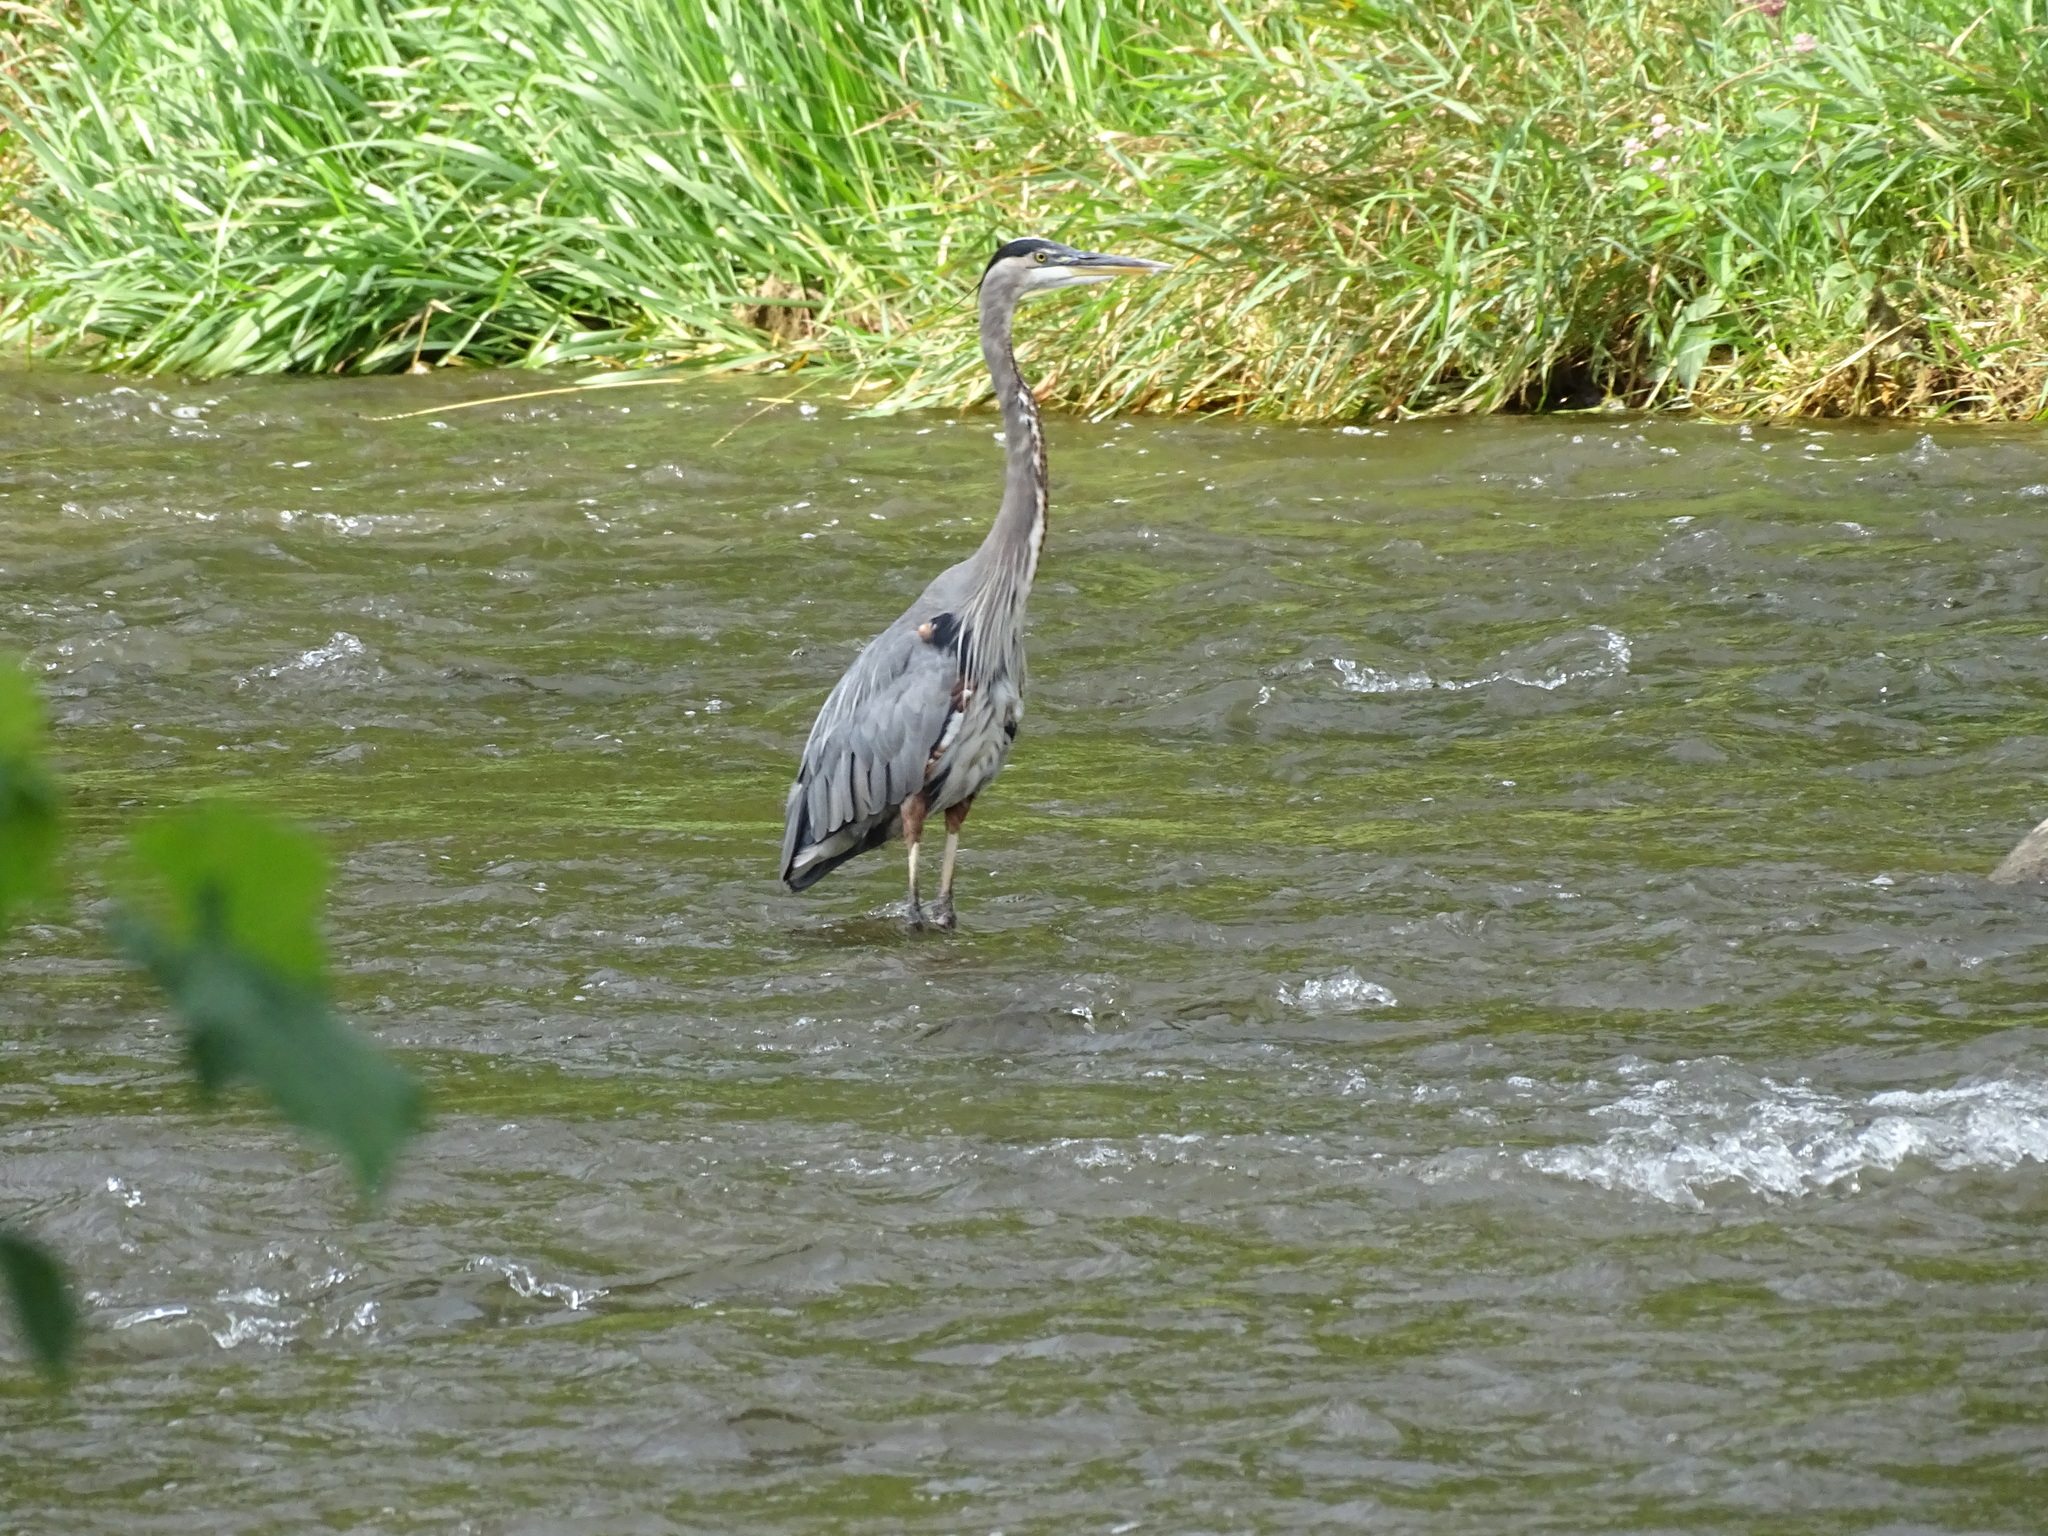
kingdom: Animalia
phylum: Chordata
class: Aves
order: Pelecaniformes
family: Ardeidae
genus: Ardea
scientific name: Ardea herodias
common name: Great blue heron
